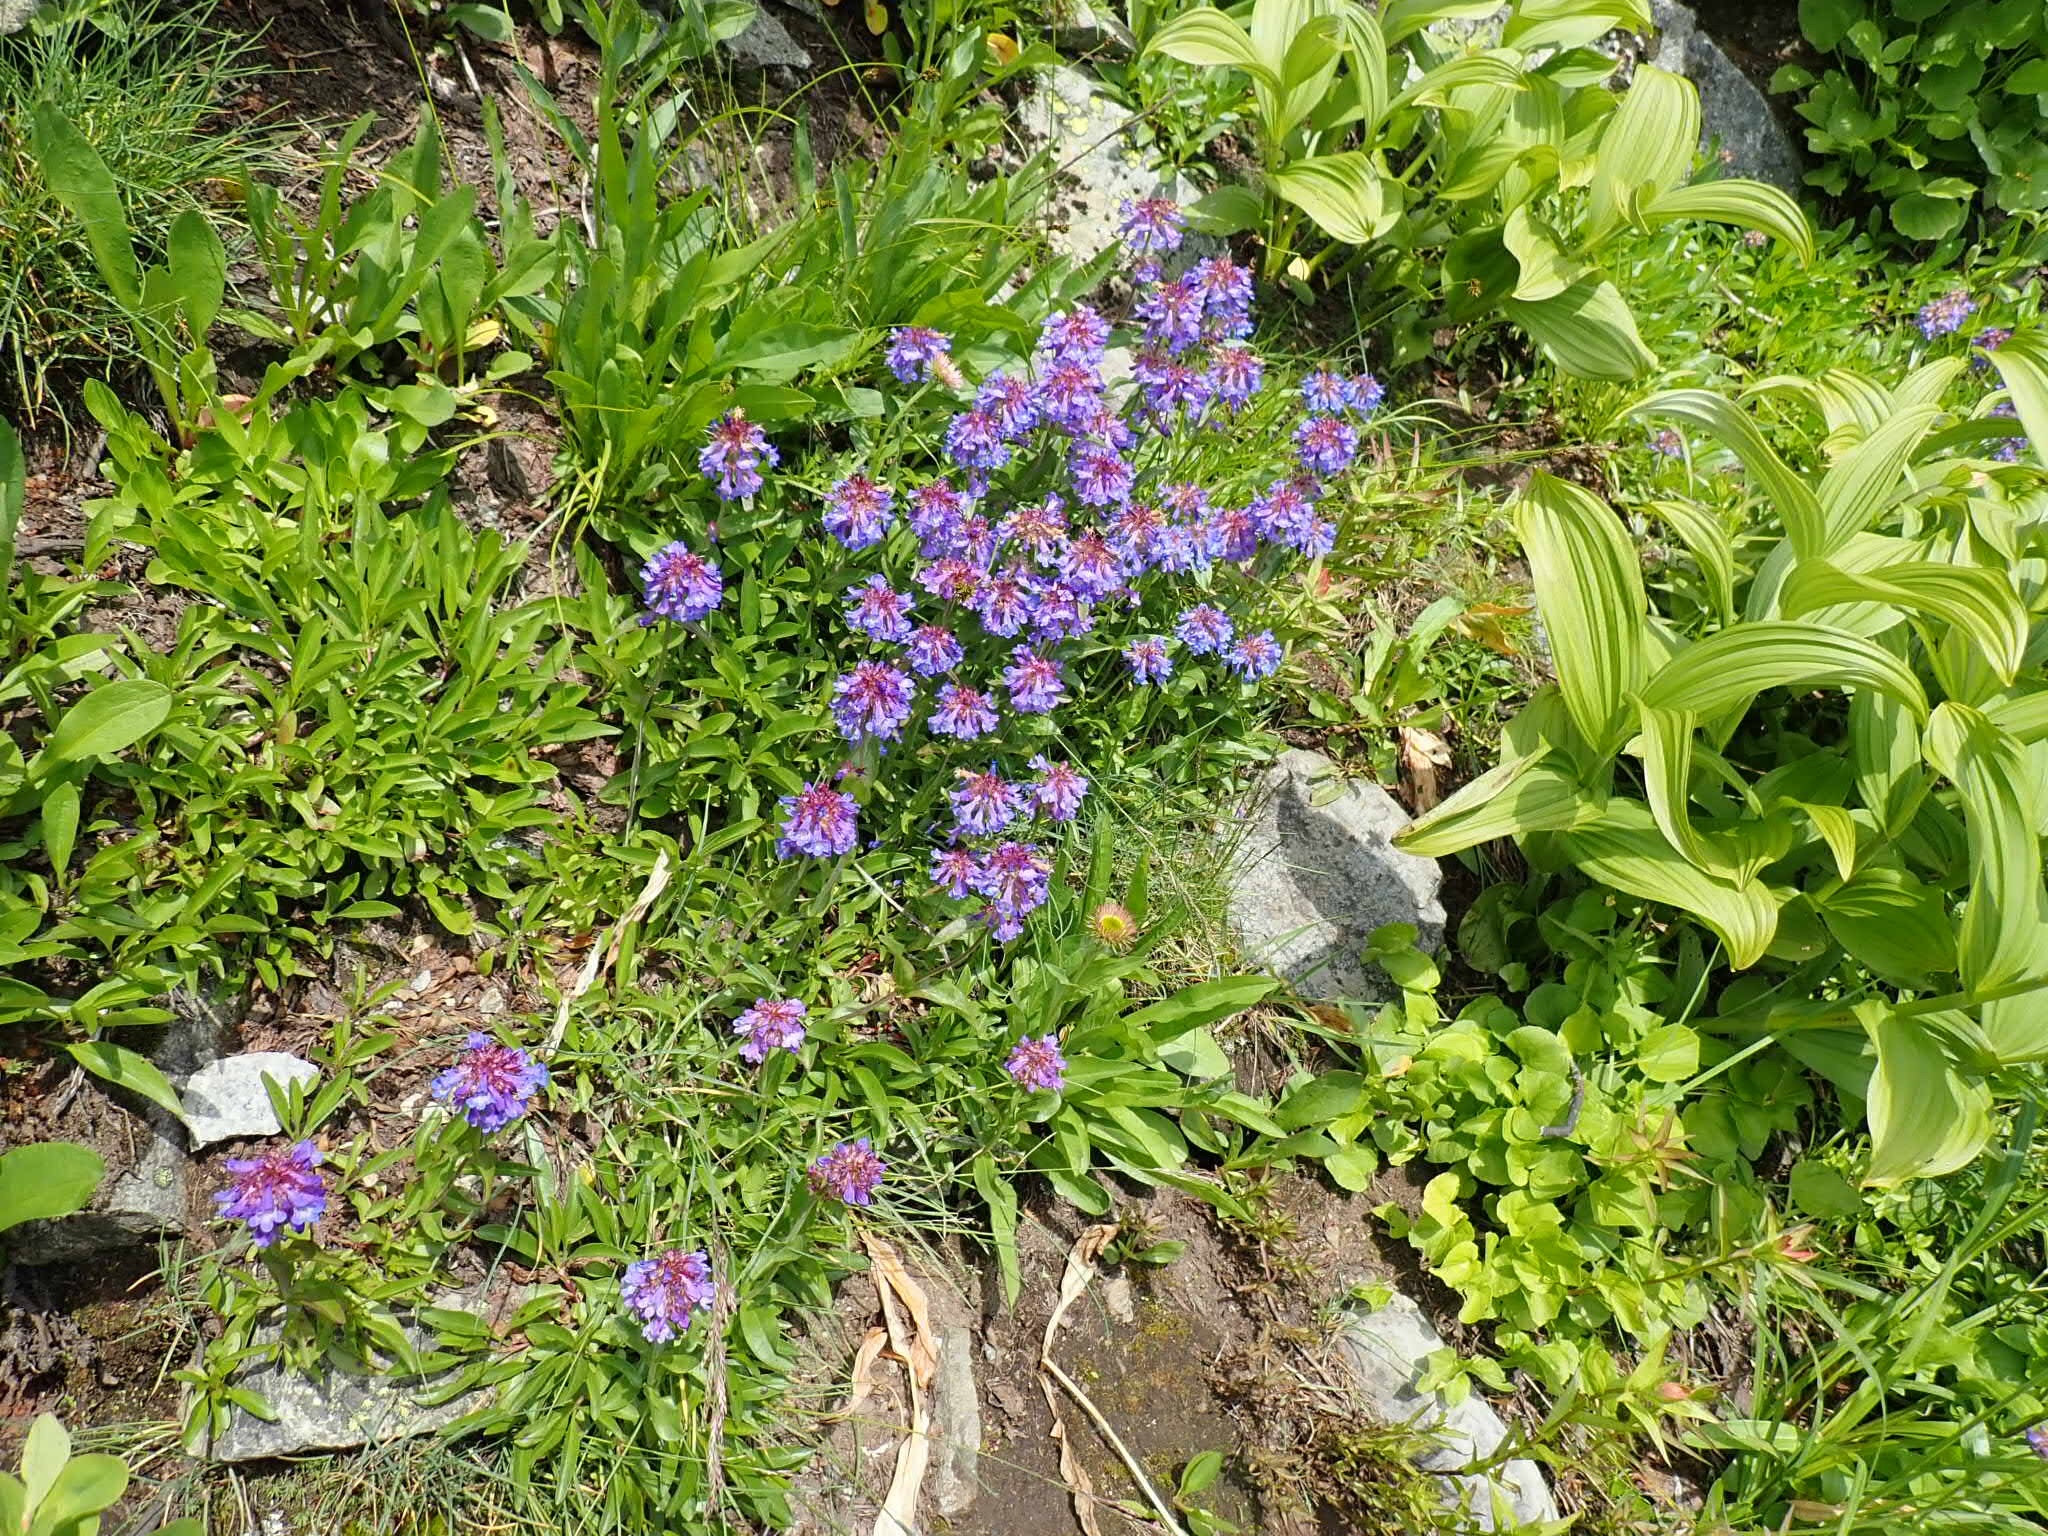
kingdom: Plantae
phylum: Tracheophyta
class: Magnoliopsida
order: Lamiales
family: Plantaginaceae
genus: Penstemon
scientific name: Penstemon procerus
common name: Small-flower penstemon
